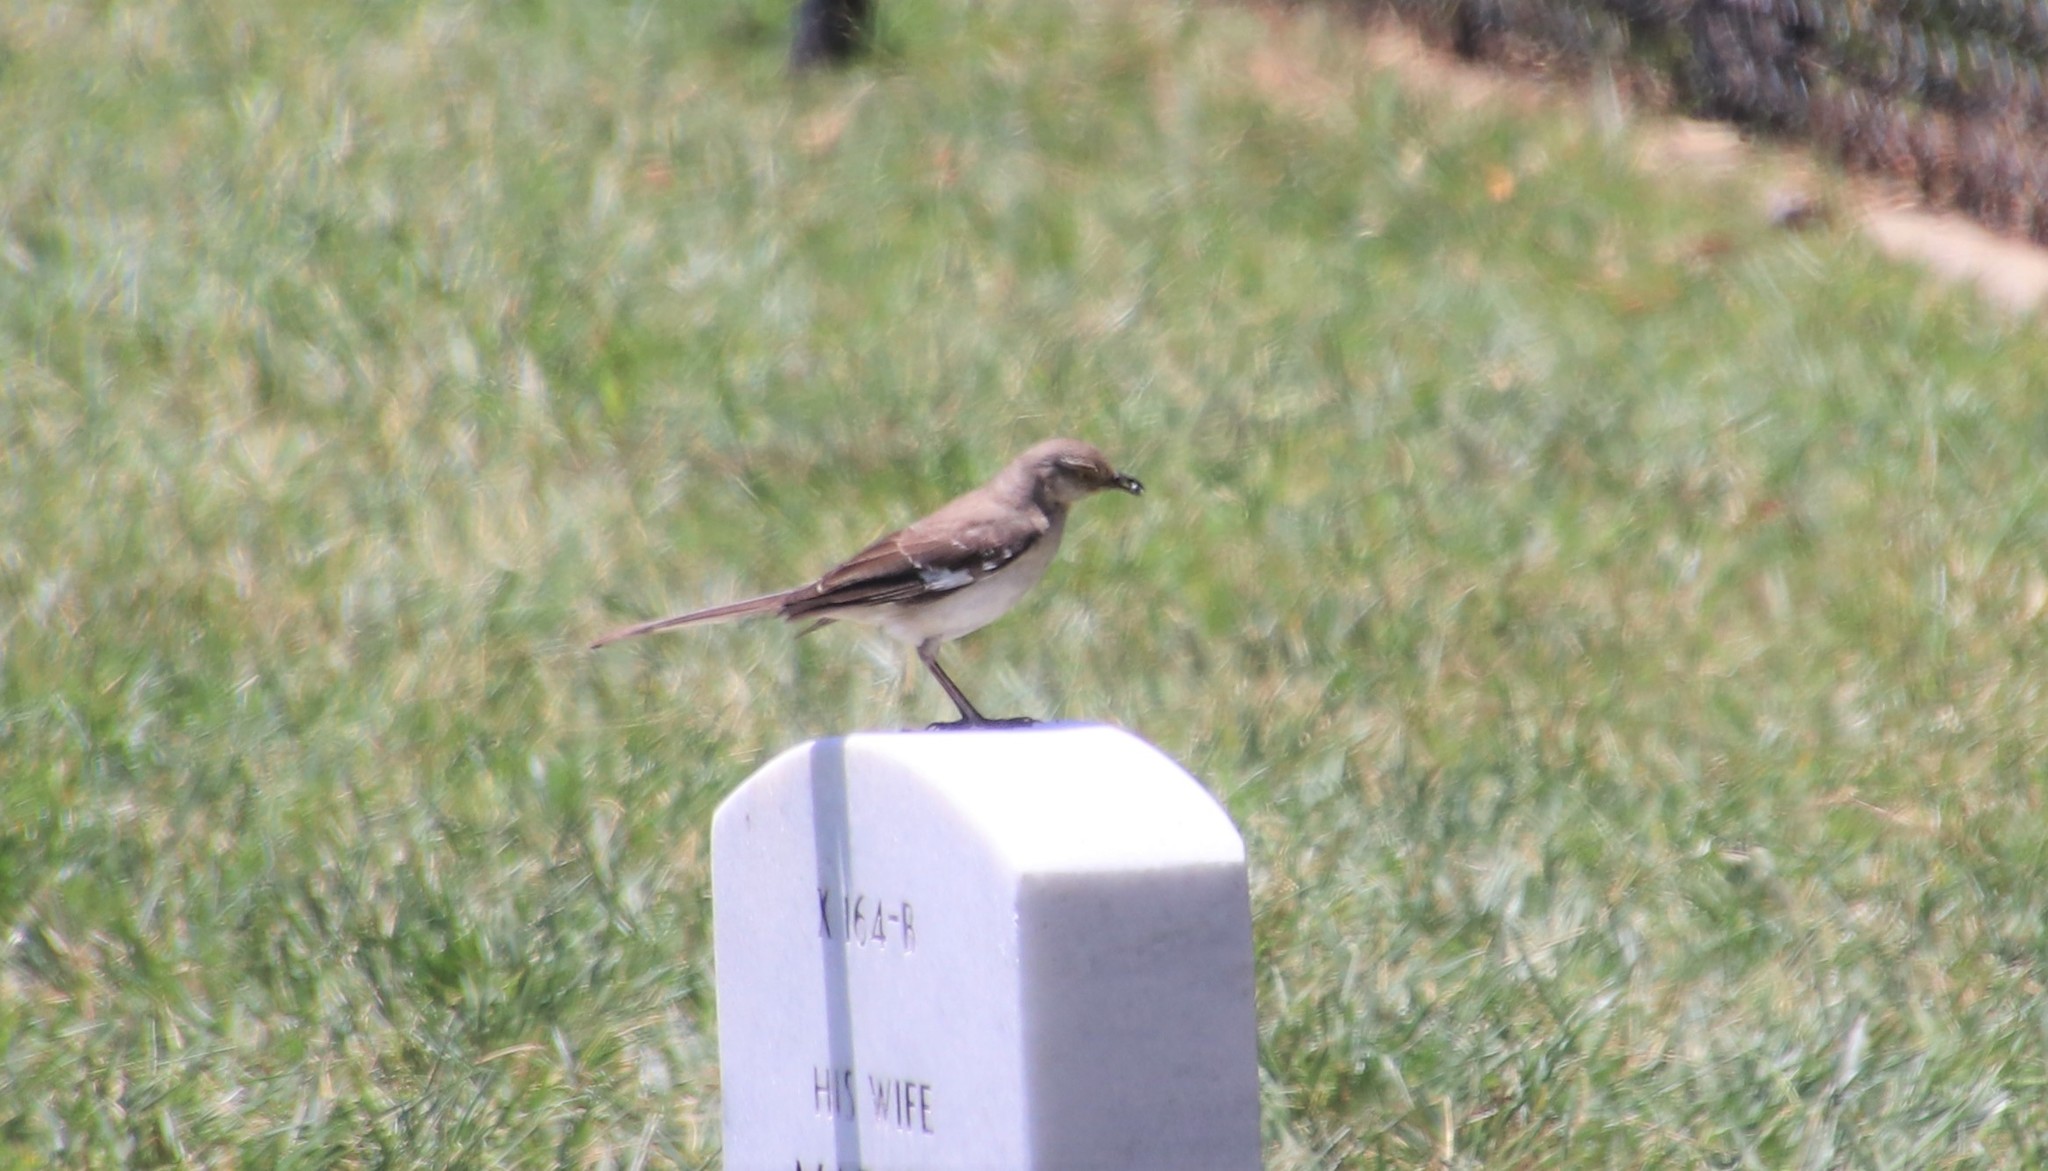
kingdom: Animalia
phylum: Chordata
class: Aves
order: Passeriformes
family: Mimidae
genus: Mimus
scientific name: Mimus polyglottos
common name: Northern mockingbird
